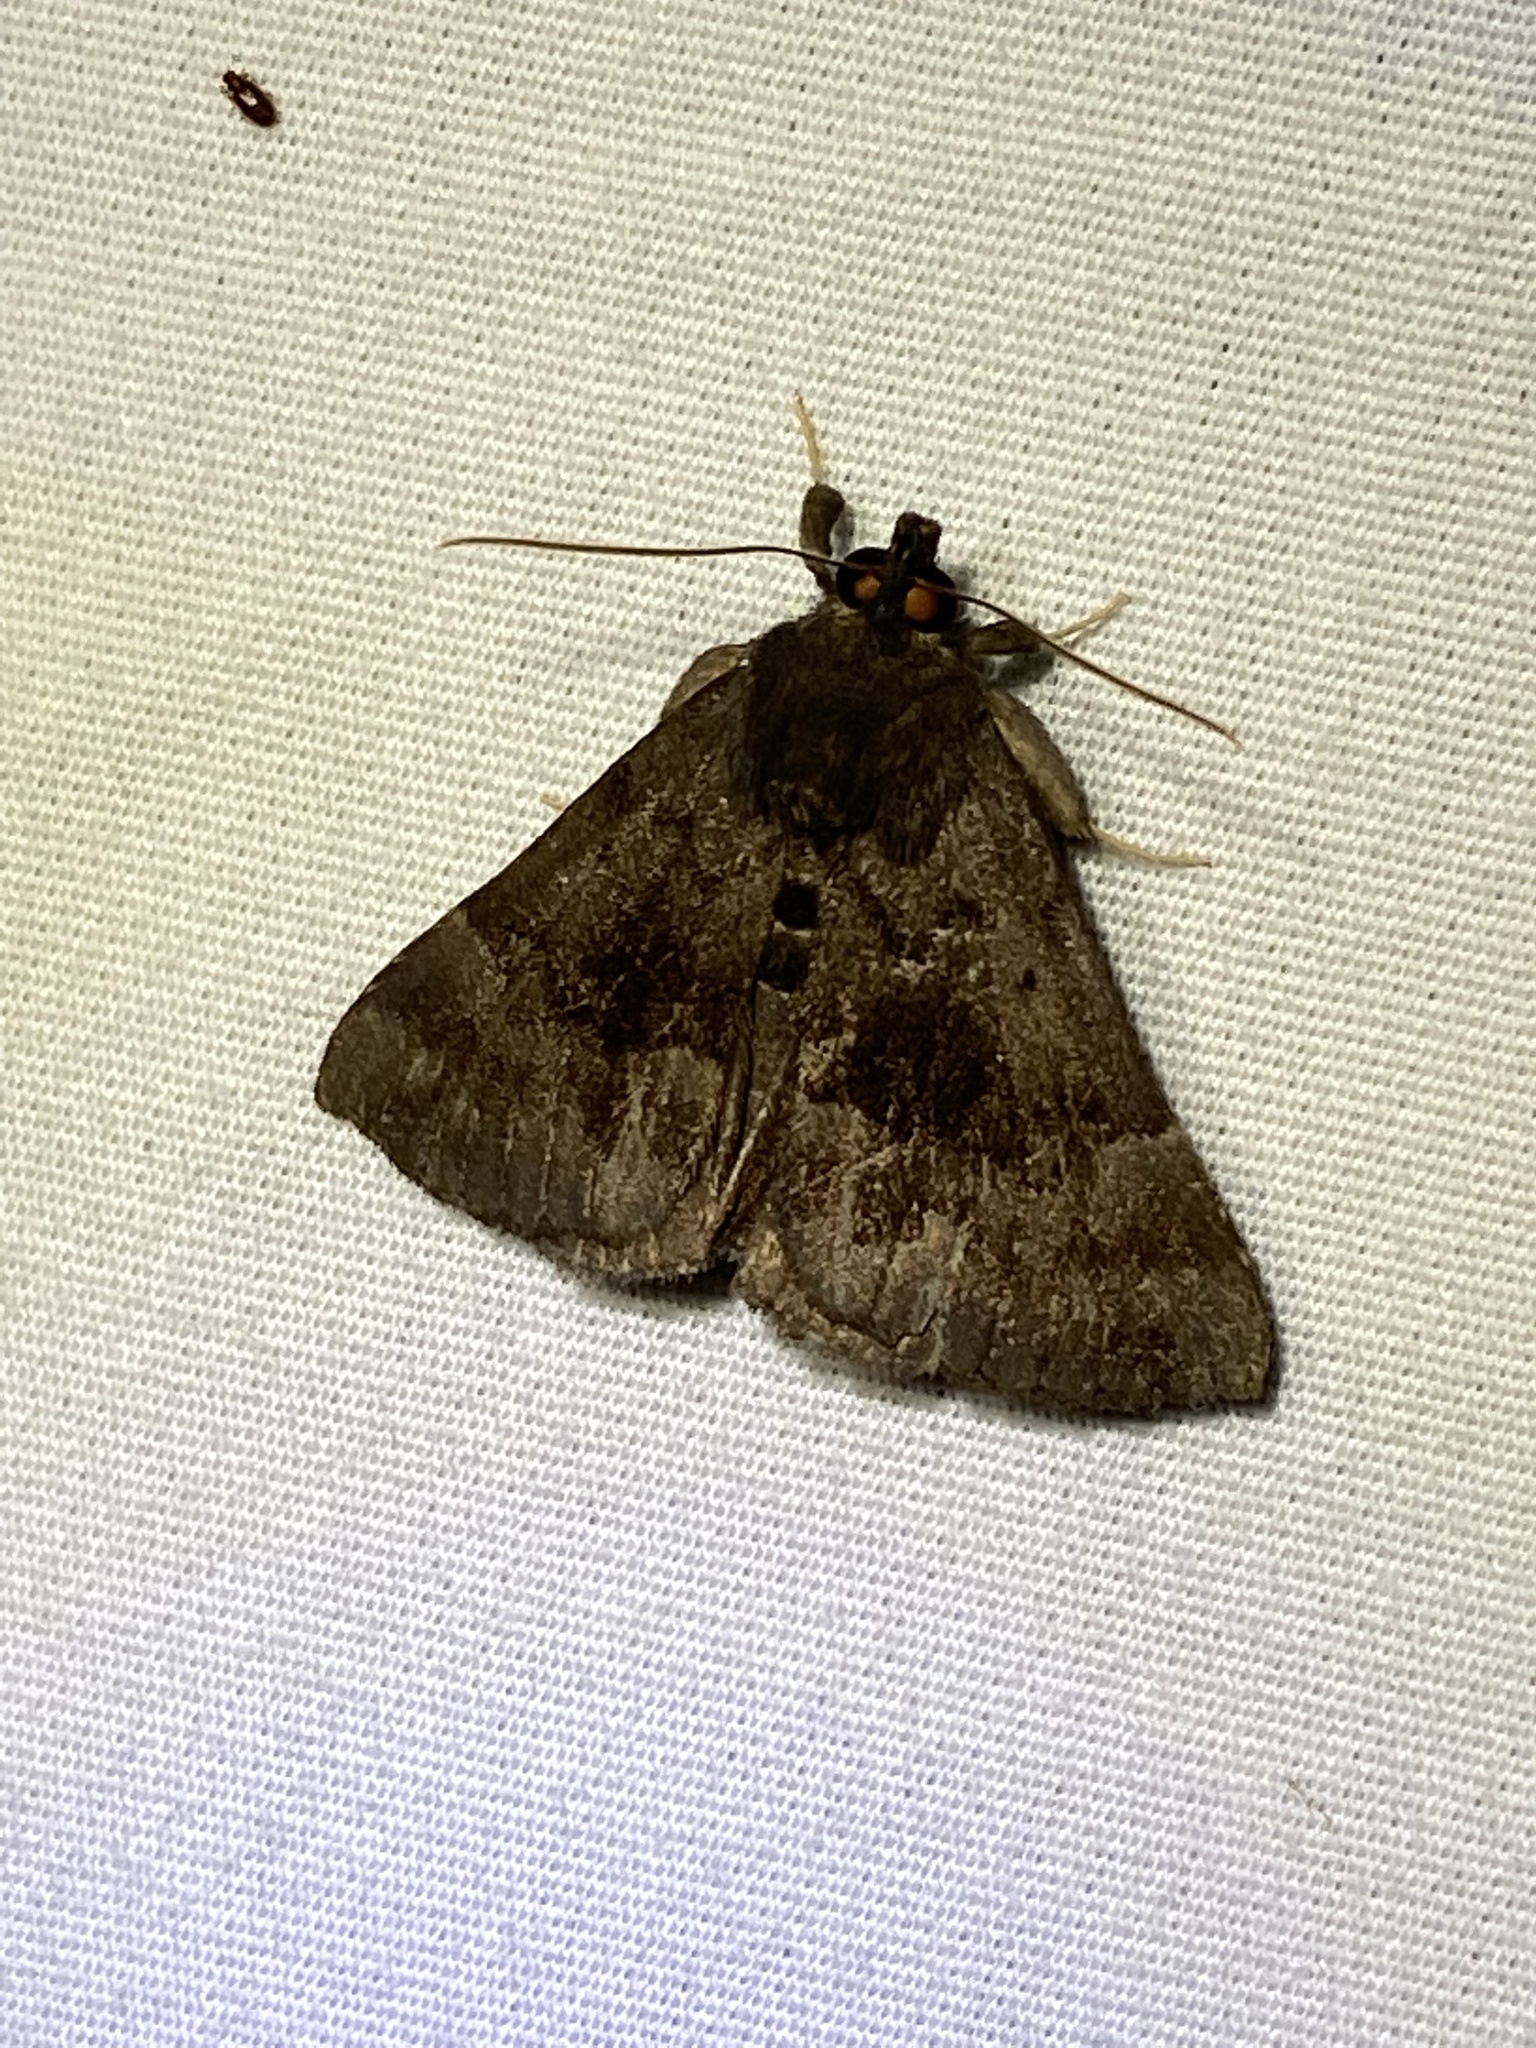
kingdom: Animalia
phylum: Arthropoda
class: Insecta
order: Lepidoptera
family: Erebidae
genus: Hypena
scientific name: Hypena madefactalis
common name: Gray-edged snout
